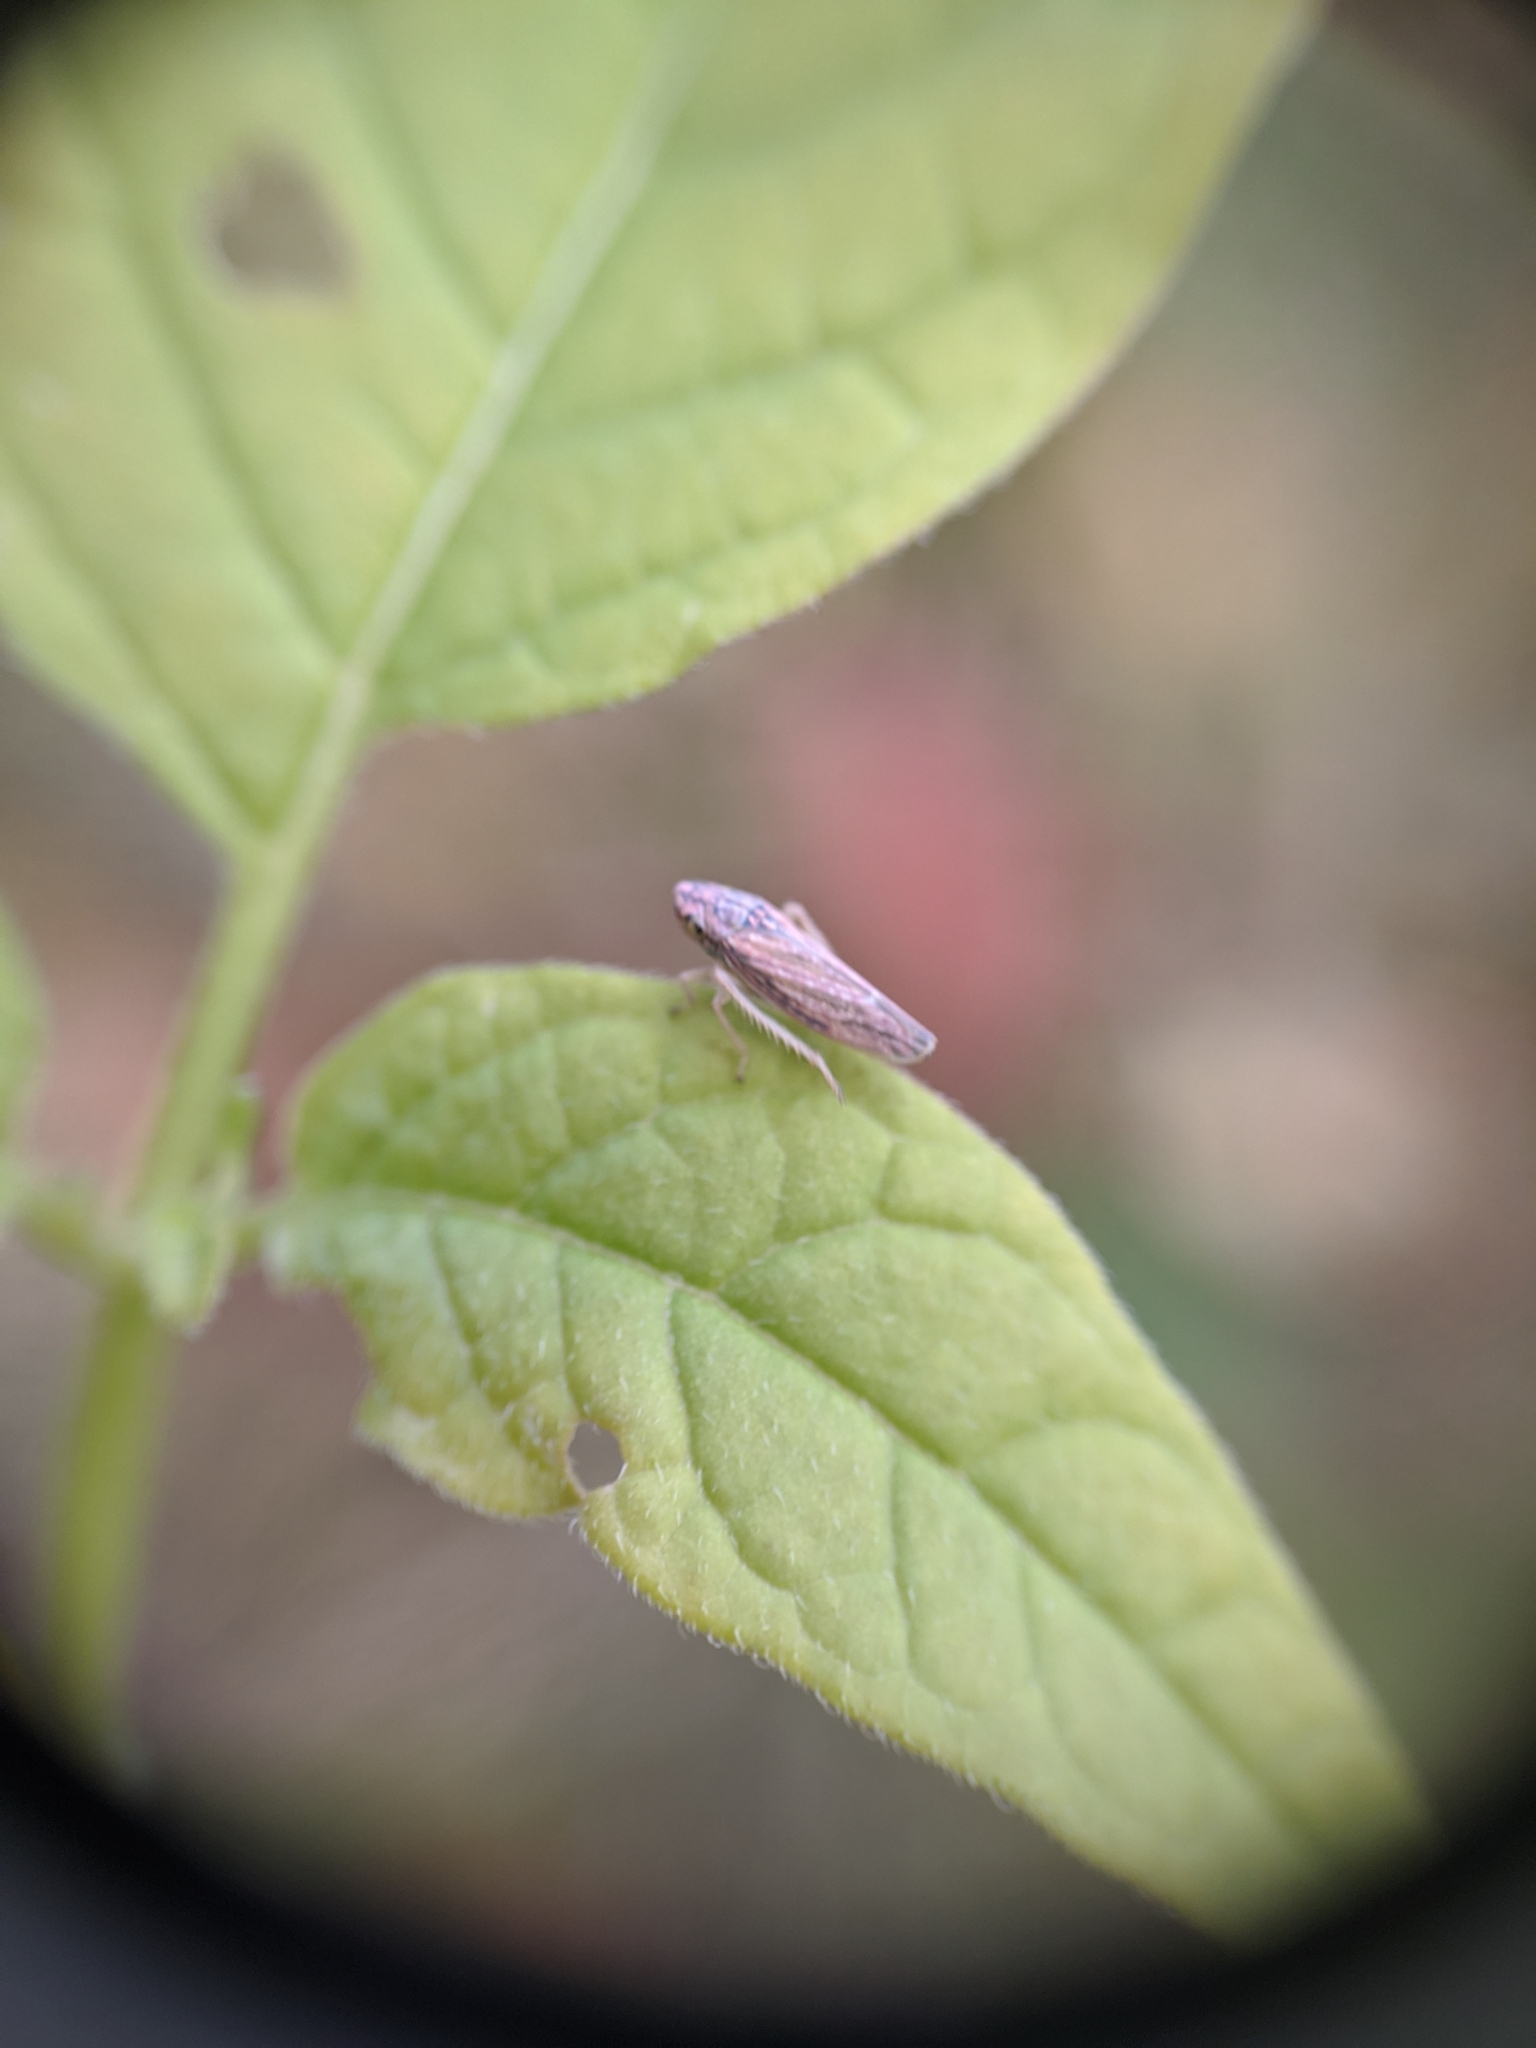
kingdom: Animalia
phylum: Arthropoda
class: Insecta
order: Hemiptera
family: Cicadellidae
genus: Neokolla
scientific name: Neokolla hieroglyphica
